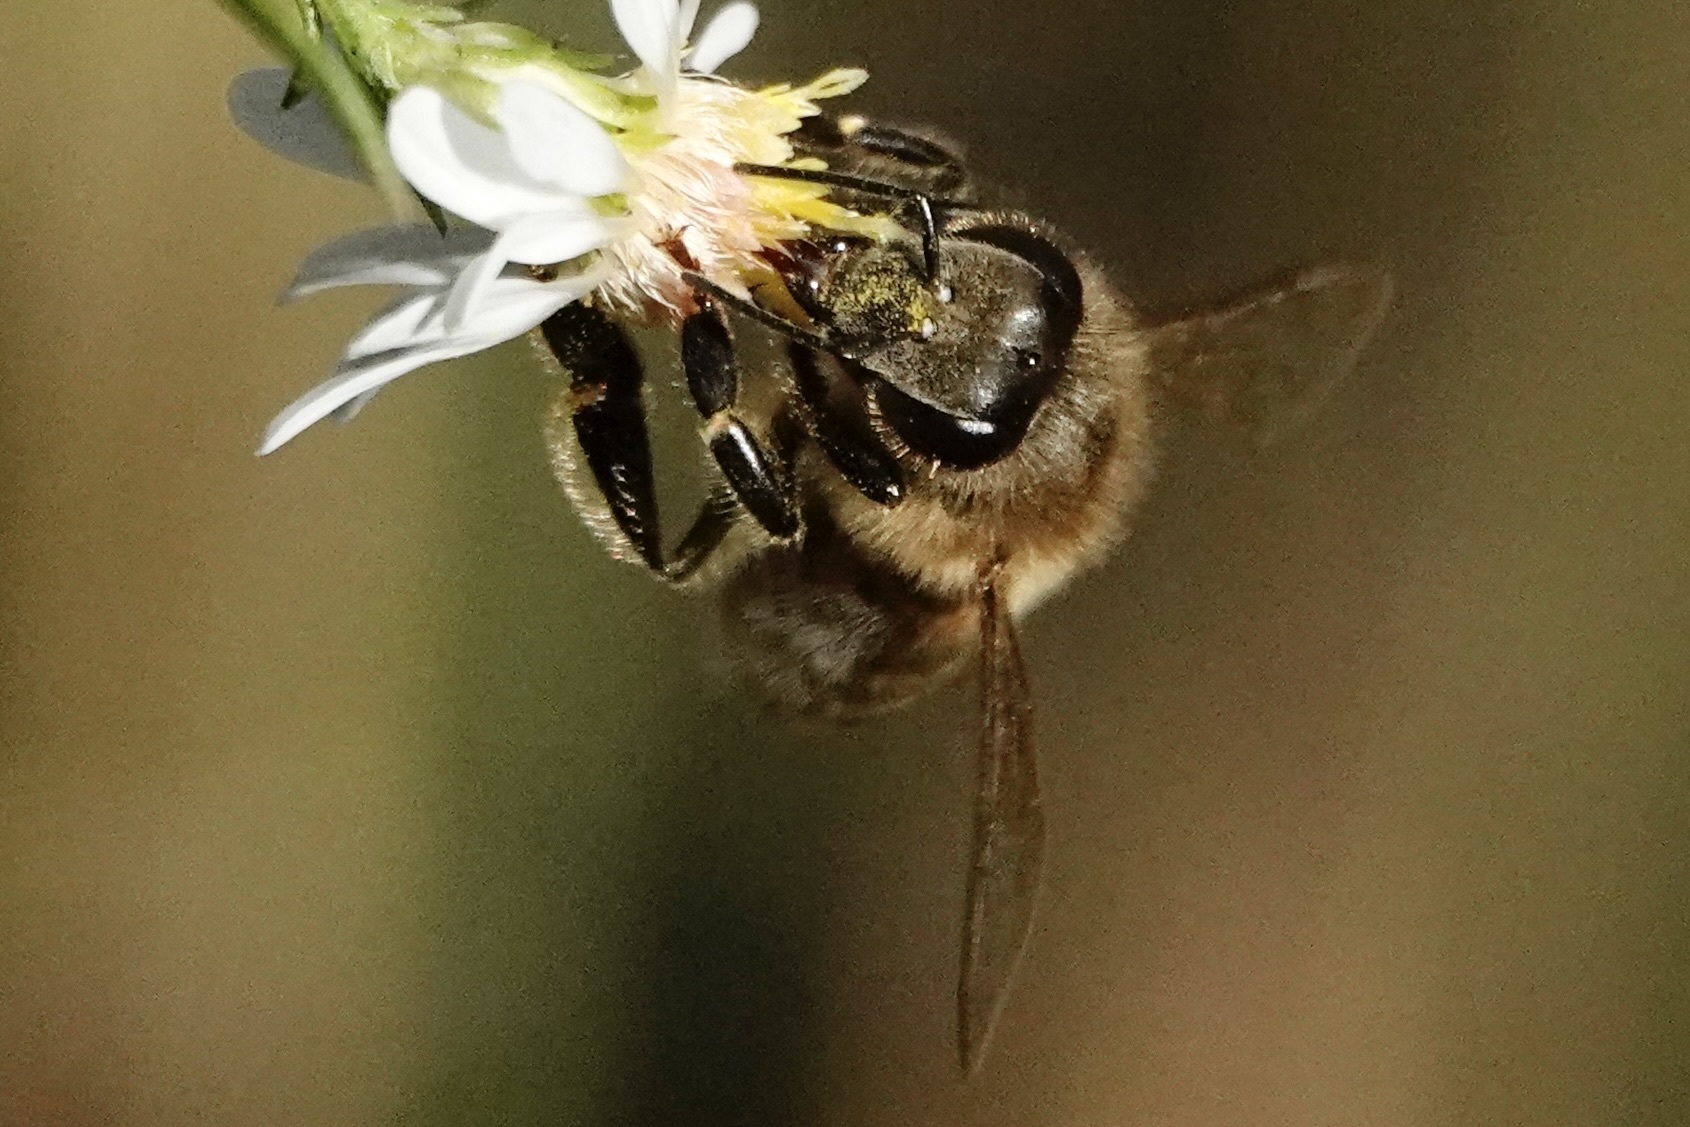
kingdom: Animalia
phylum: Arthropoda
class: Insecta
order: Hymenoptera
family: Apidae
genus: Apis
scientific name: Apis mellifera
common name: Honey bee
